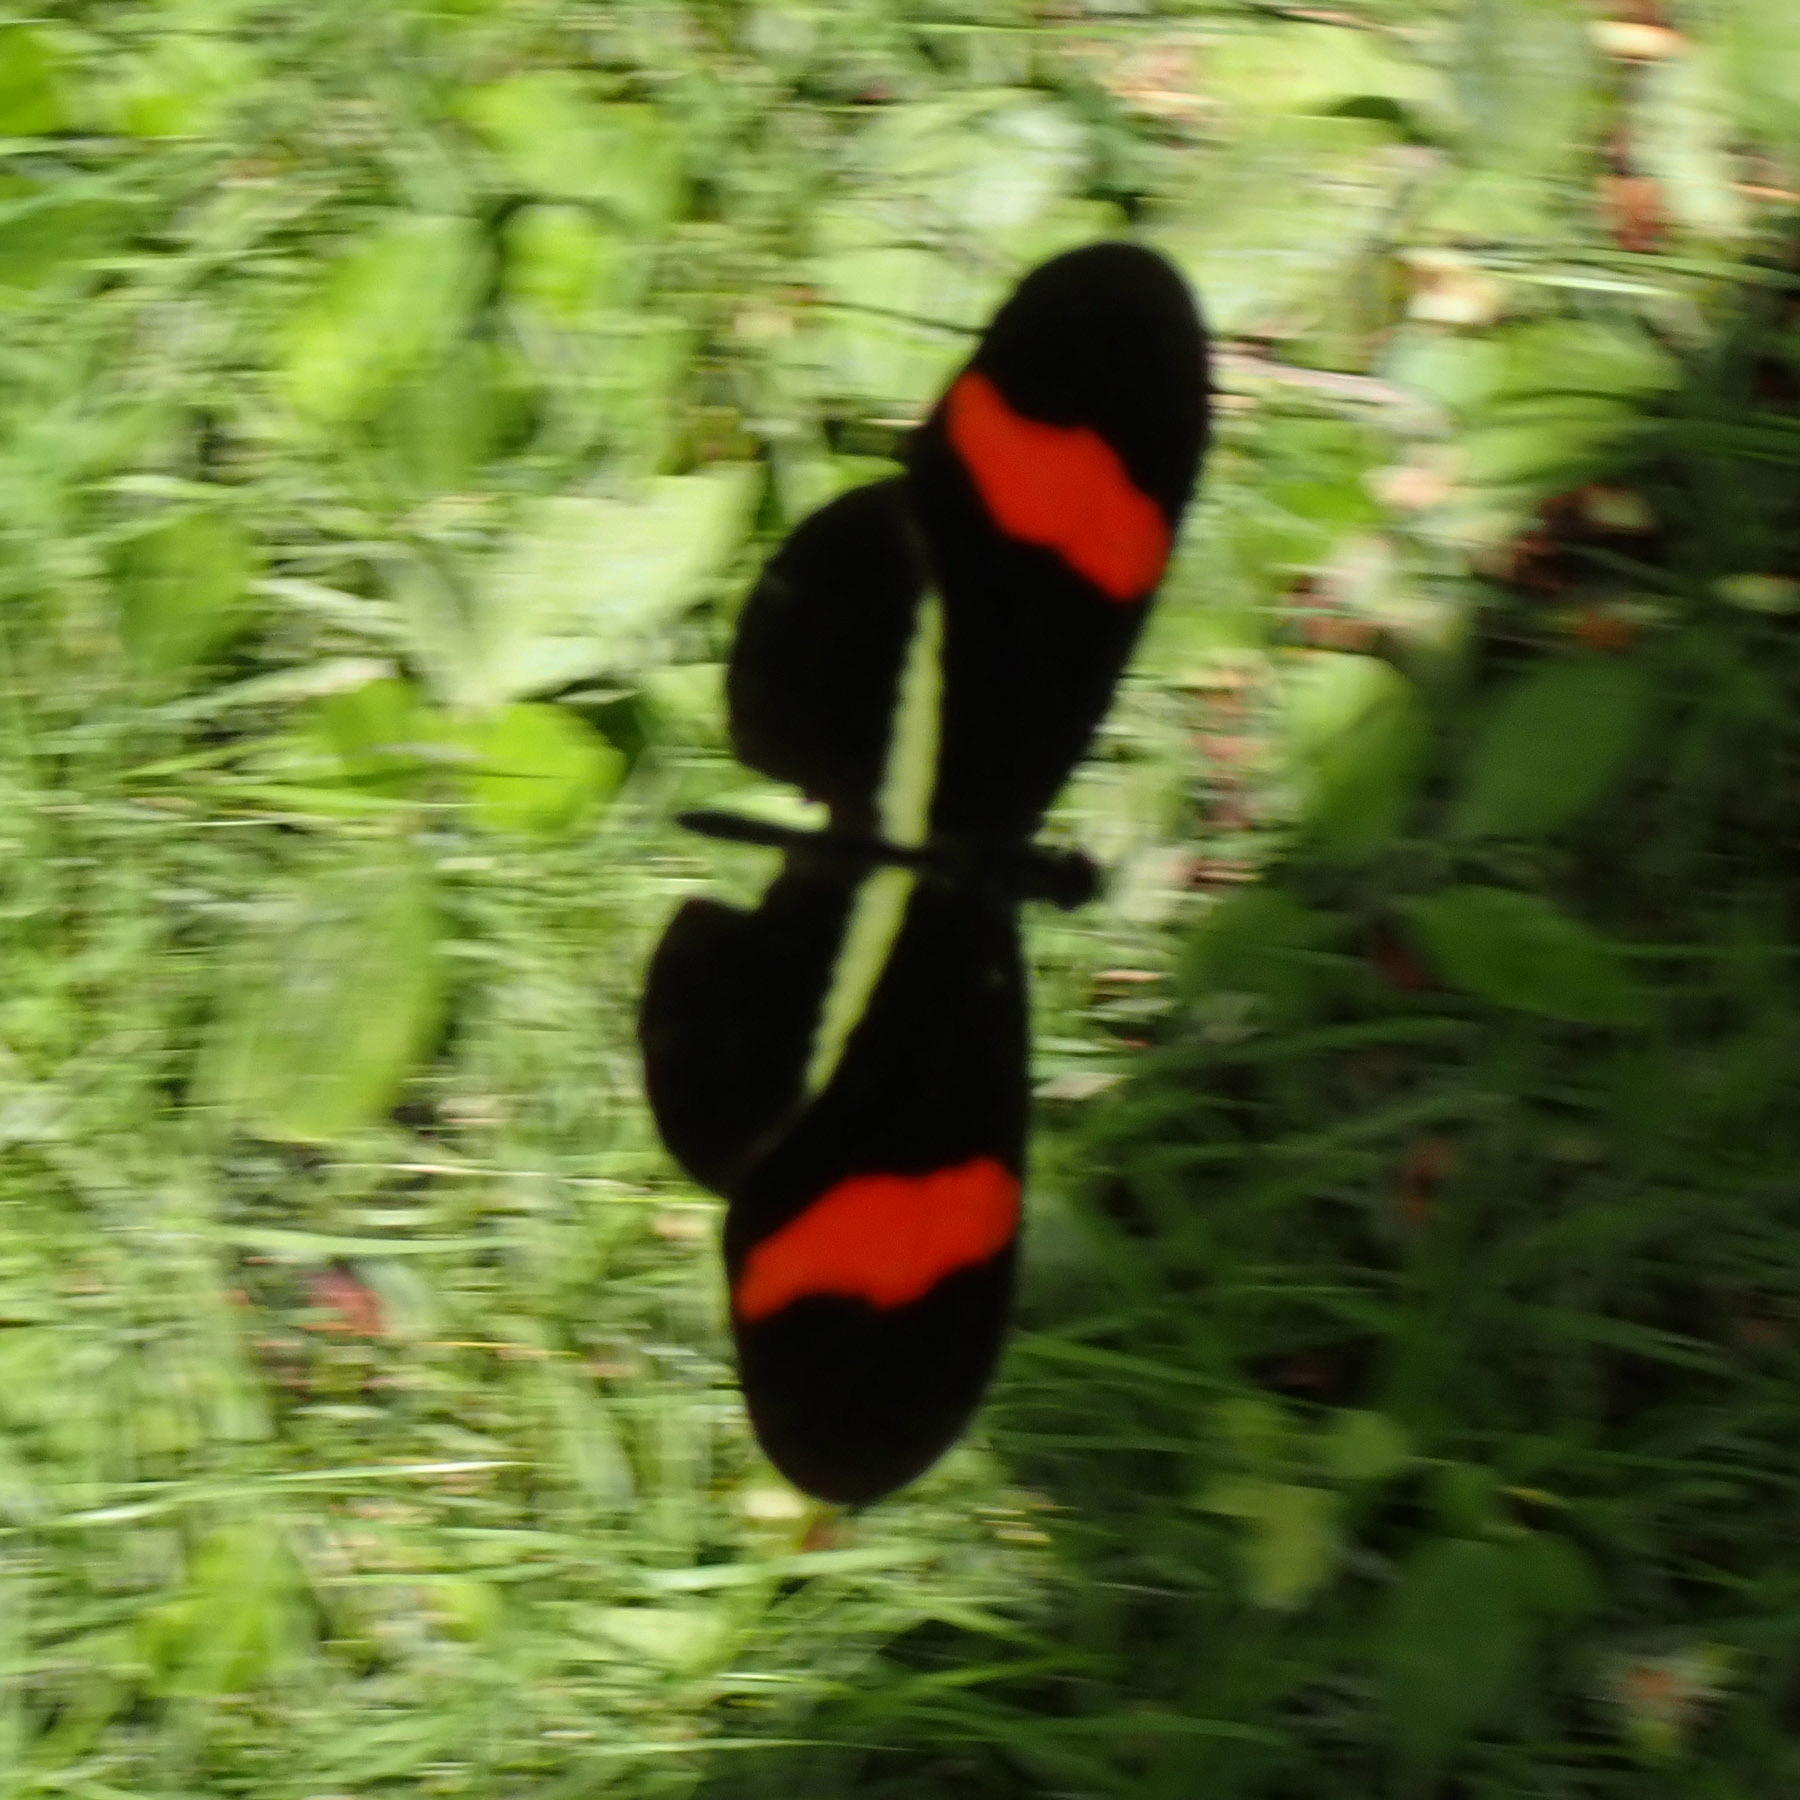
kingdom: Animalia
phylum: Arthropoda
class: Insecta
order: Lepidoptera
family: Nymphalidae
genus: Heliconius
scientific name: Heliconius erato
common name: Common patch longwing
